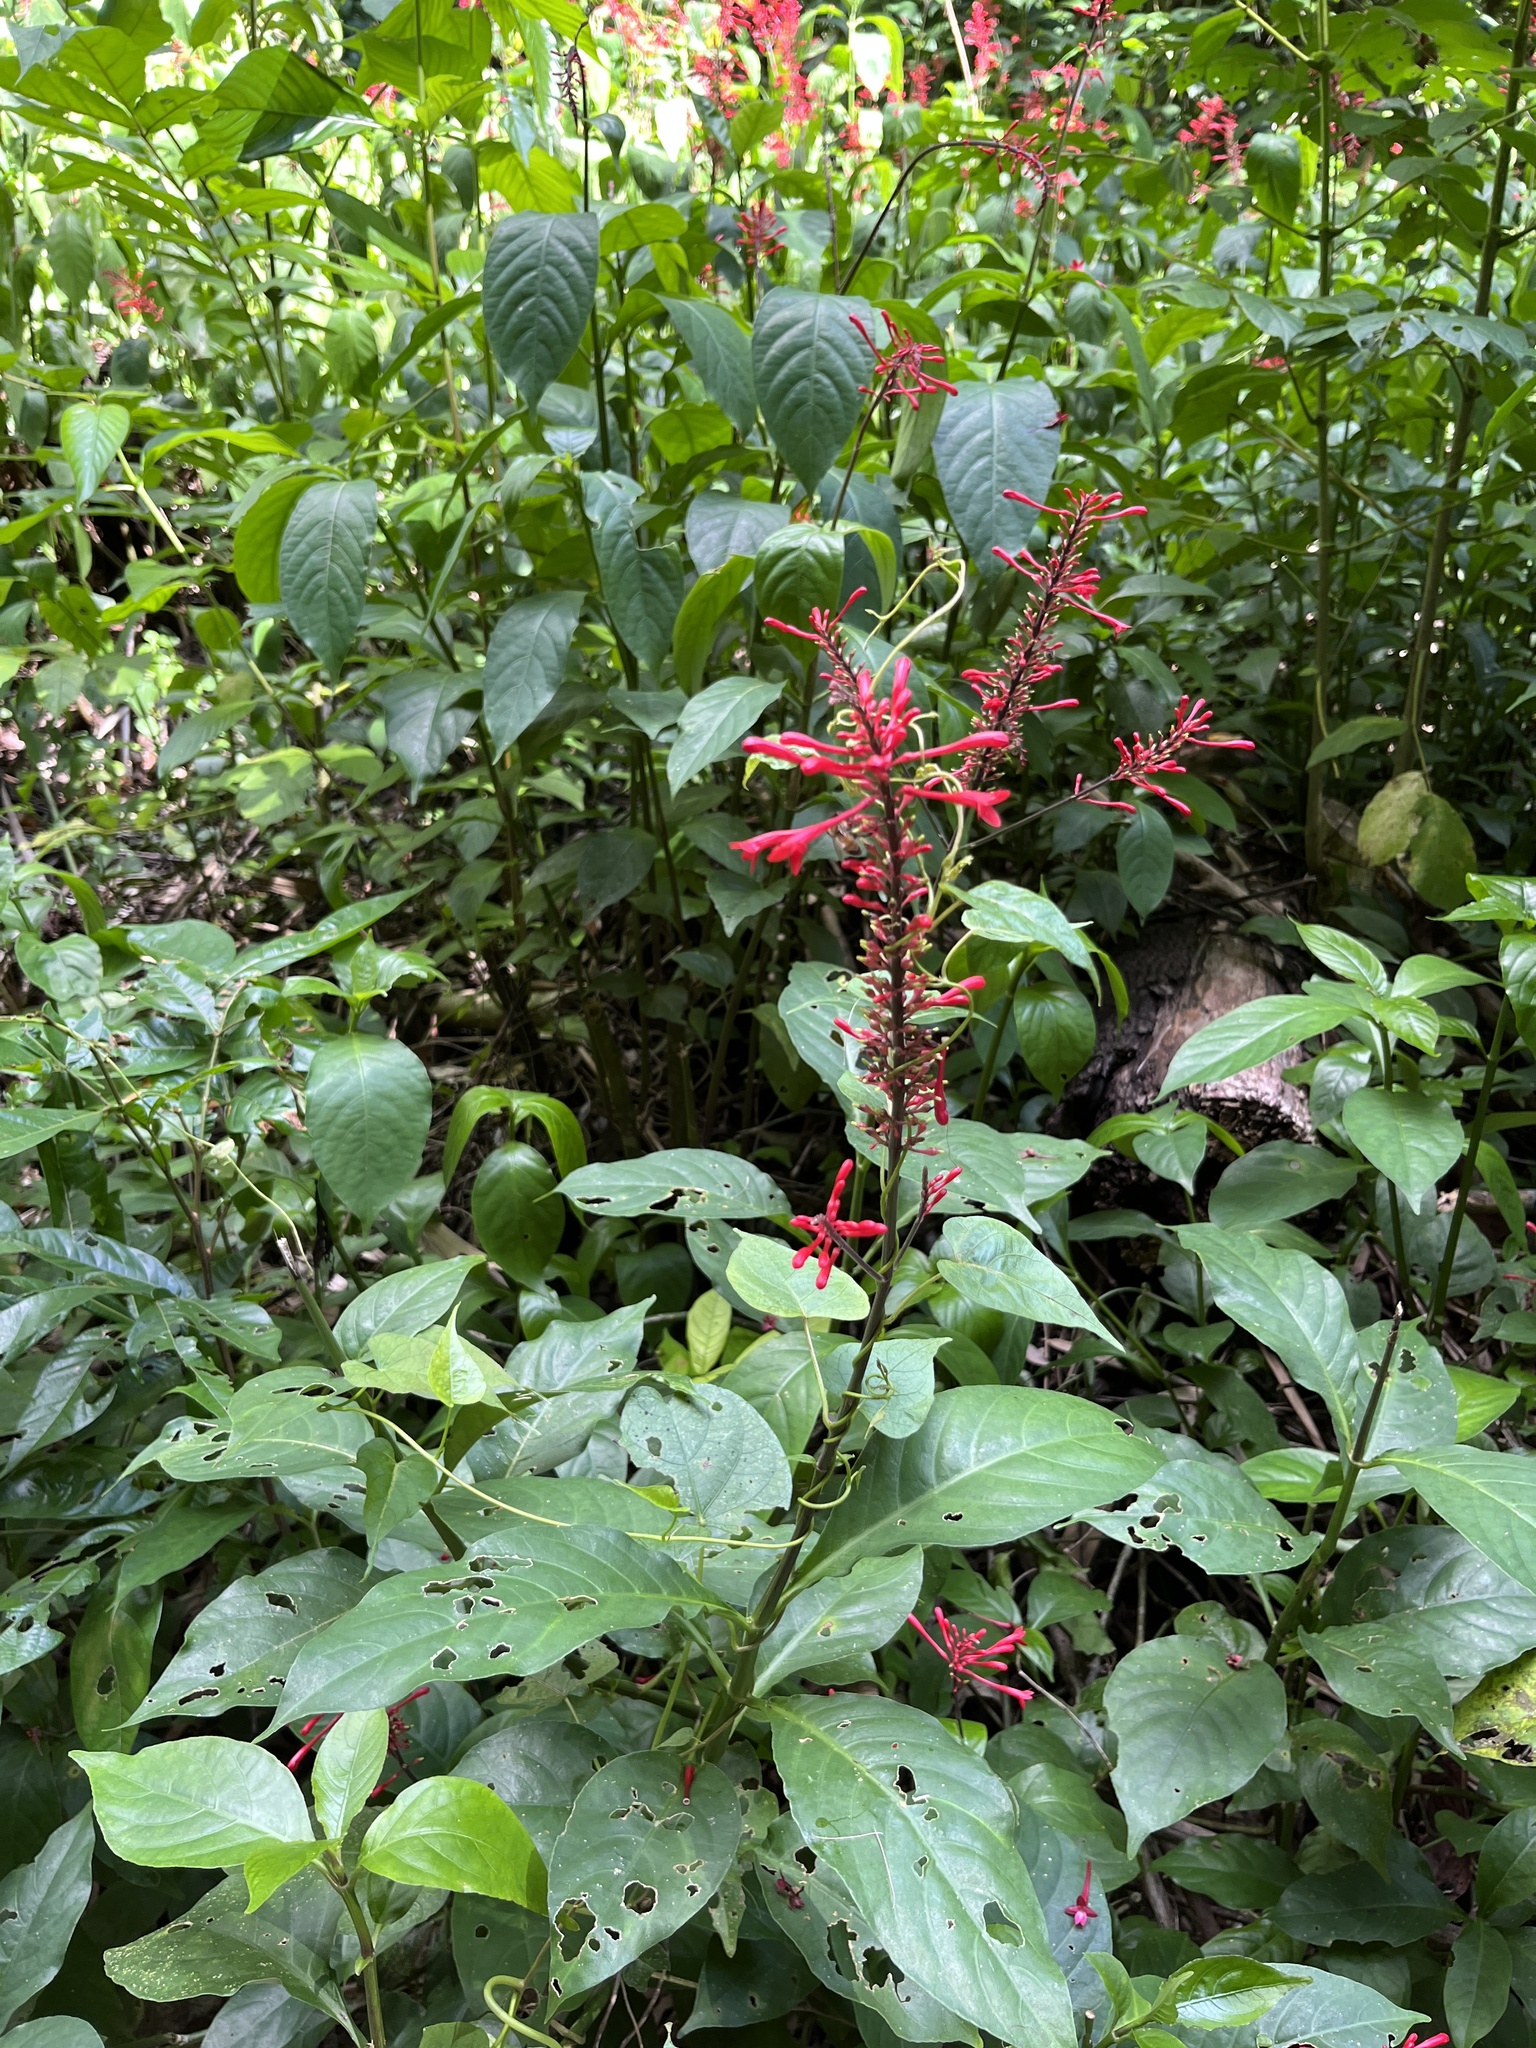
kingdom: Plantae
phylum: Tracheophyta
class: Magnoliopsida
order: Lamiales
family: Acanthaceae
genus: Odontonema
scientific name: Odontonema cuspidatum
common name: Mottled toothedthread
